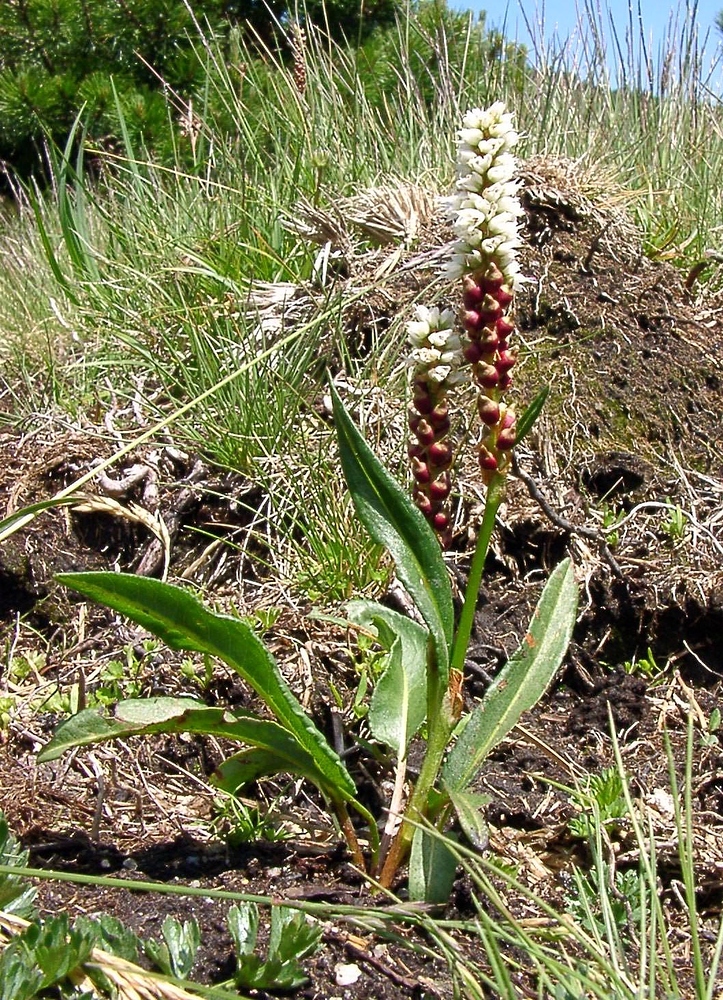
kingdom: Plantae
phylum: Tracheophyta
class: Magnoliopsida
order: Caryophyllales
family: Polygonaceae
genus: Bistorta
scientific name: Bistorta vivipara
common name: Alpine bistort
